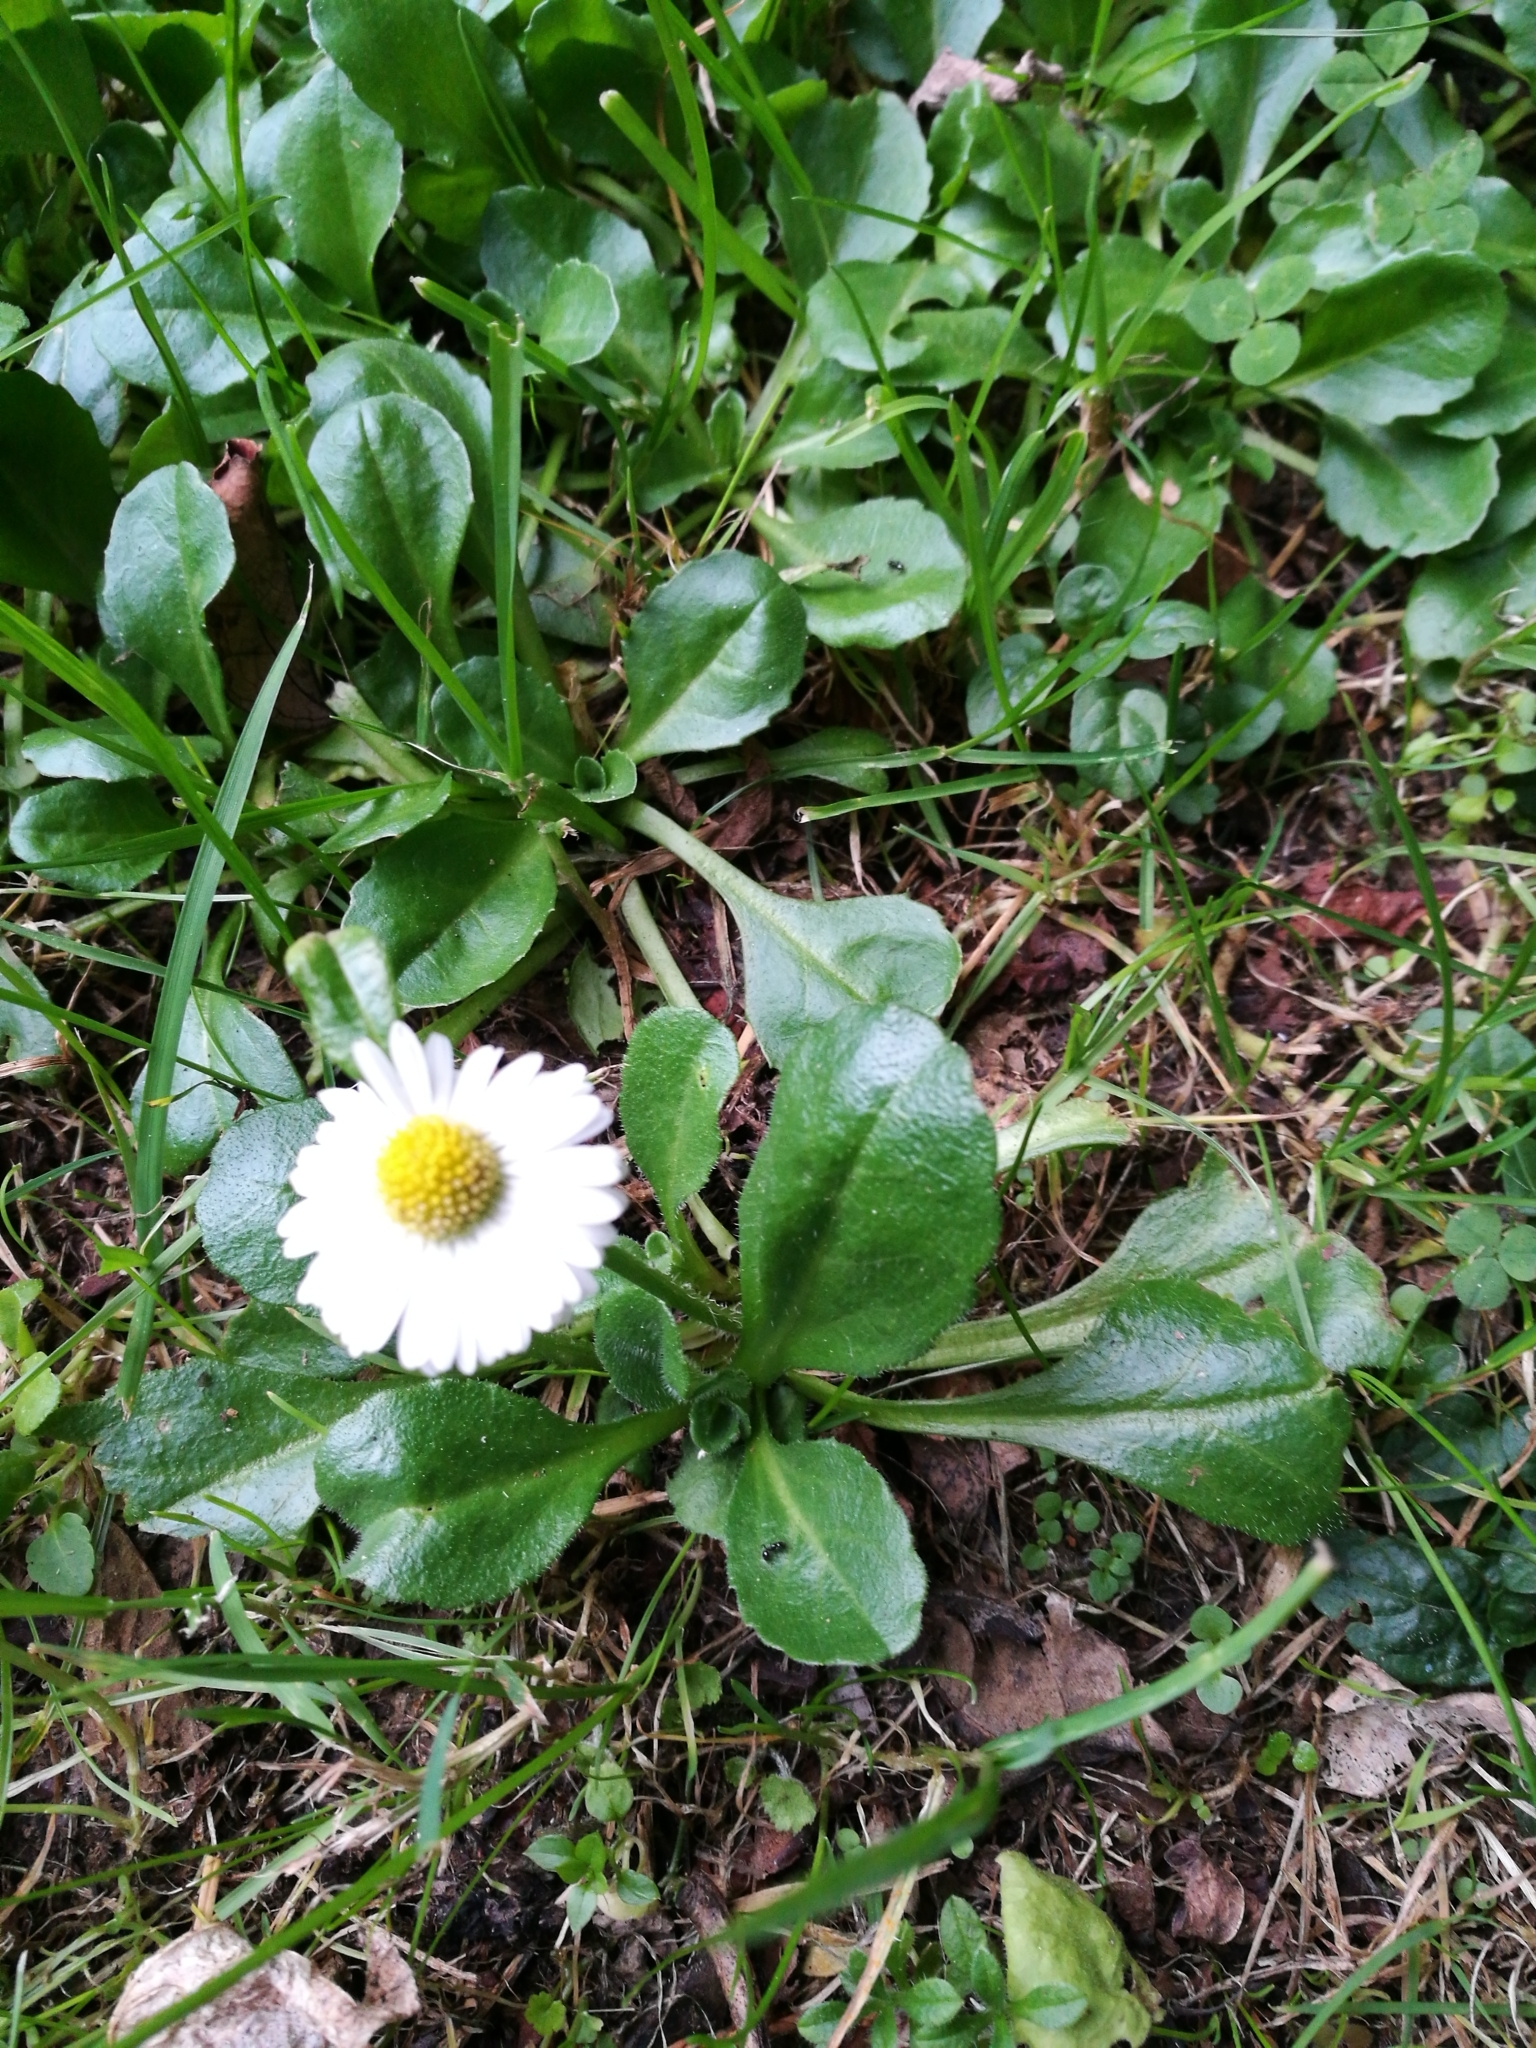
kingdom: Plantae
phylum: Tracheophyta
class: Magnoliopsida
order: Asterales
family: Asteraceae
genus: Bellis
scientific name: Bellis perennis
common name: Lawndaisy
